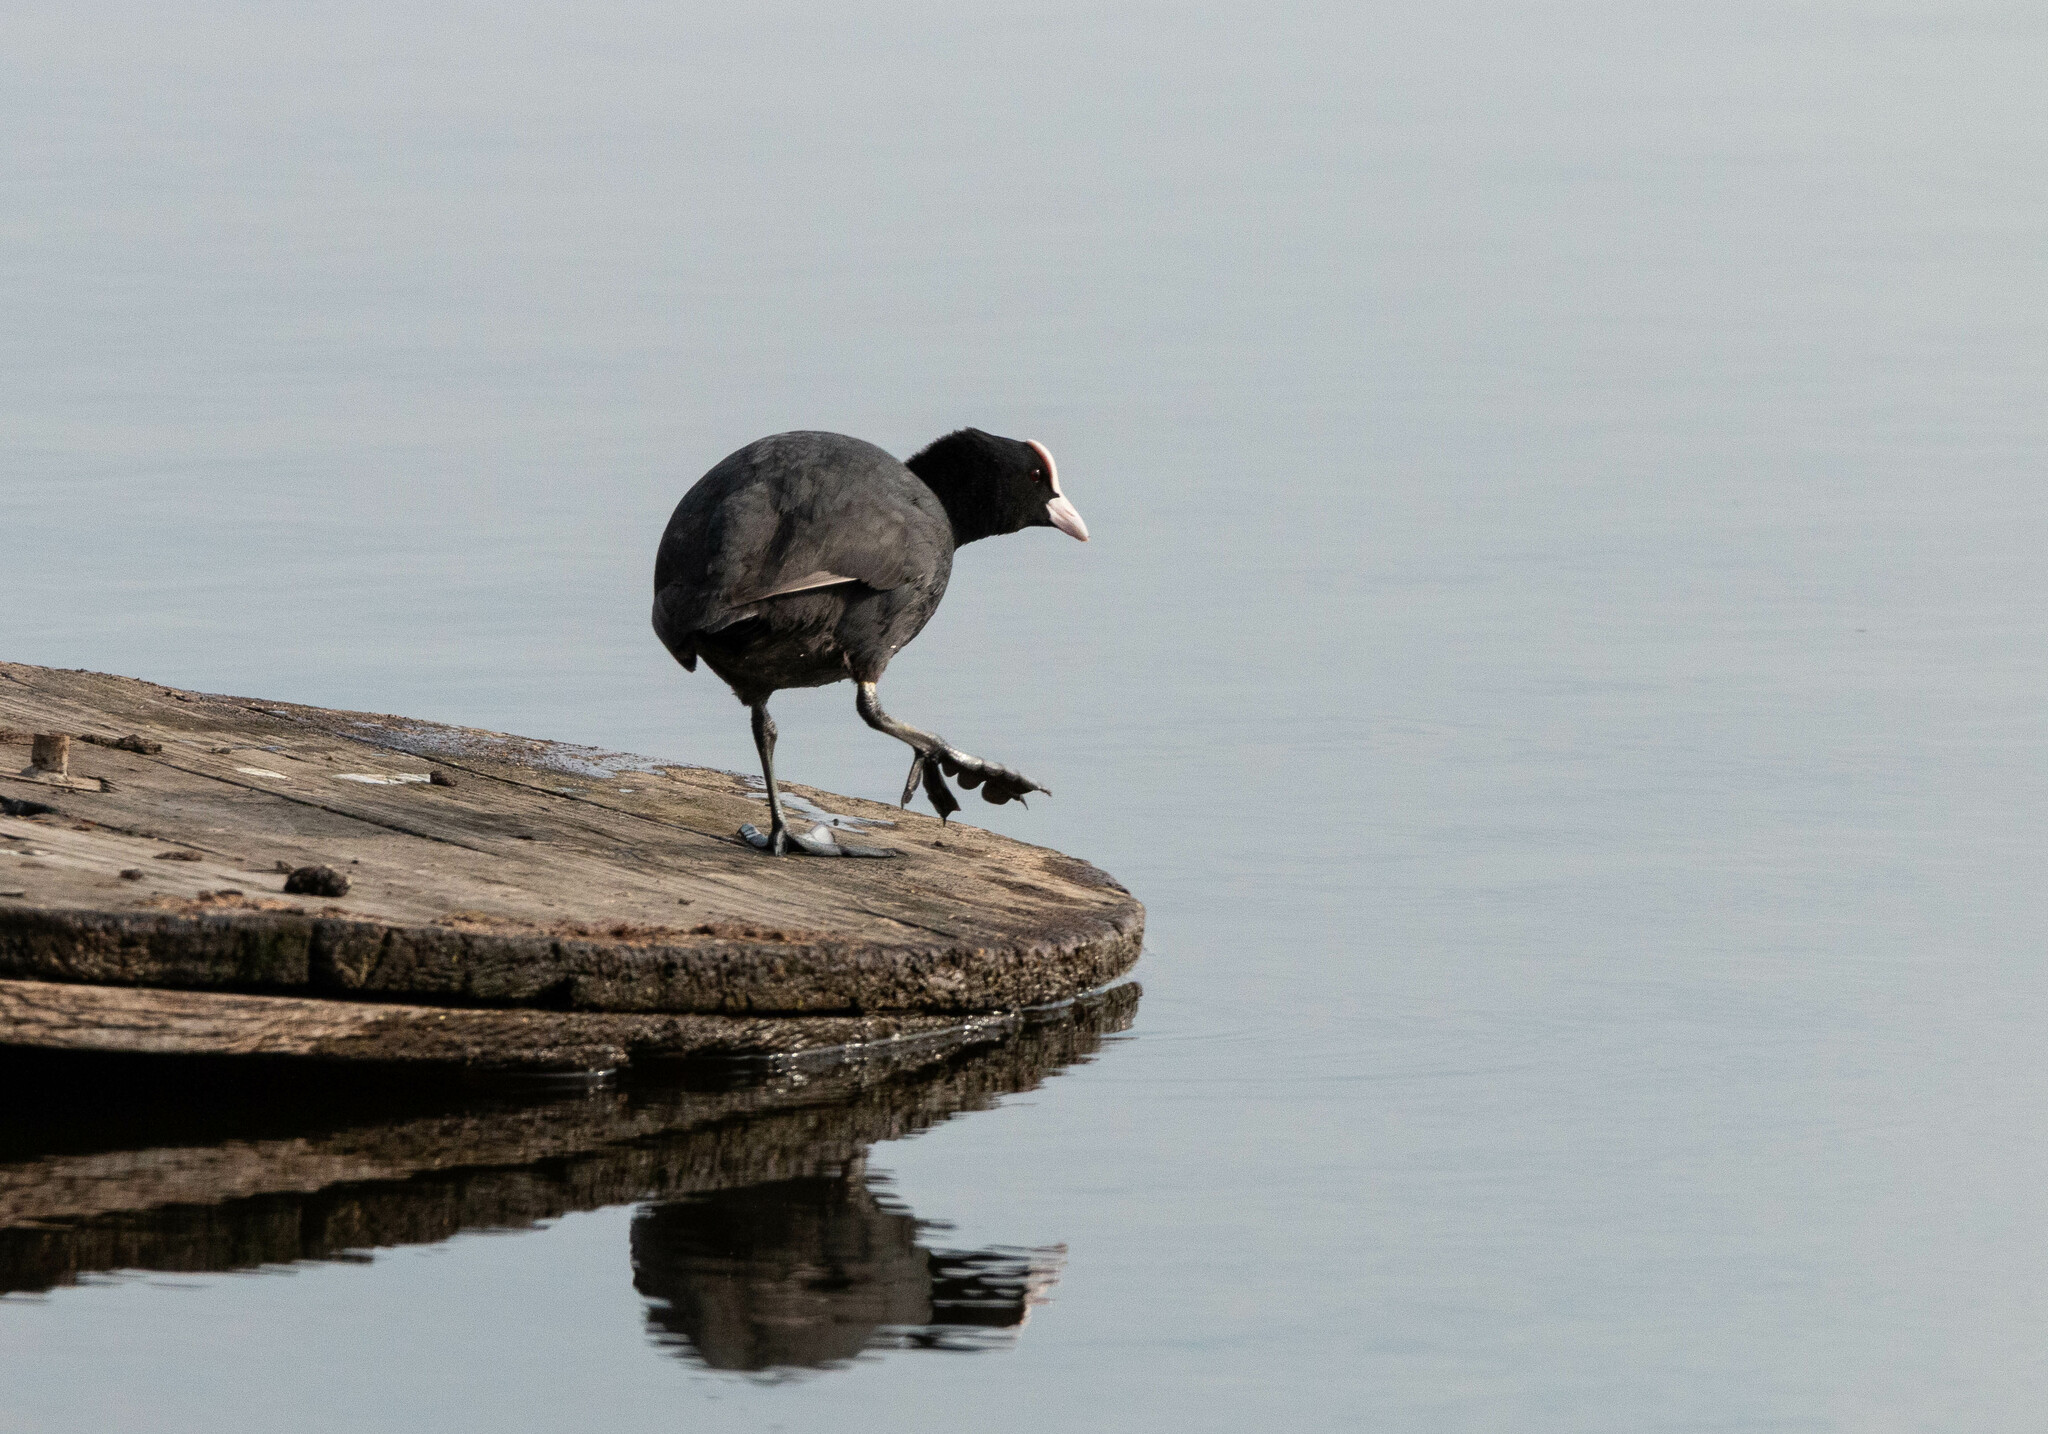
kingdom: Animalia
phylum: Chordata
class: Aves
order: Gruiformes
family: Rallidae
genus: Fulica
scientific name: Fulica atra
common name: Eurasian coot
